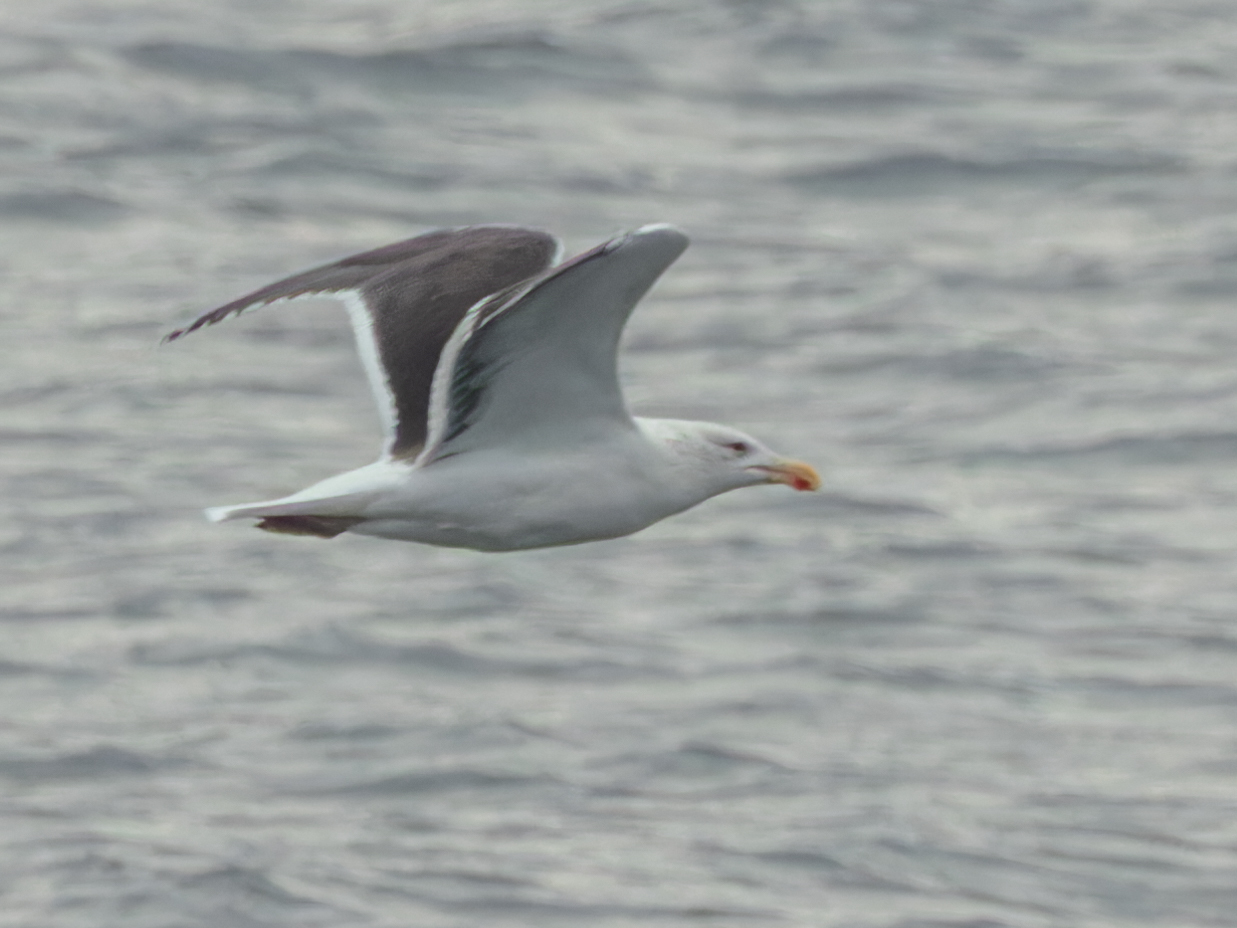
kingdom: Animalia
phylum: Chordata
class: Aves
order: Charadriiformes
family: Laridae
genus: Larus
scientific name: Larus fuscus
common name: Lesser black-backed gull
